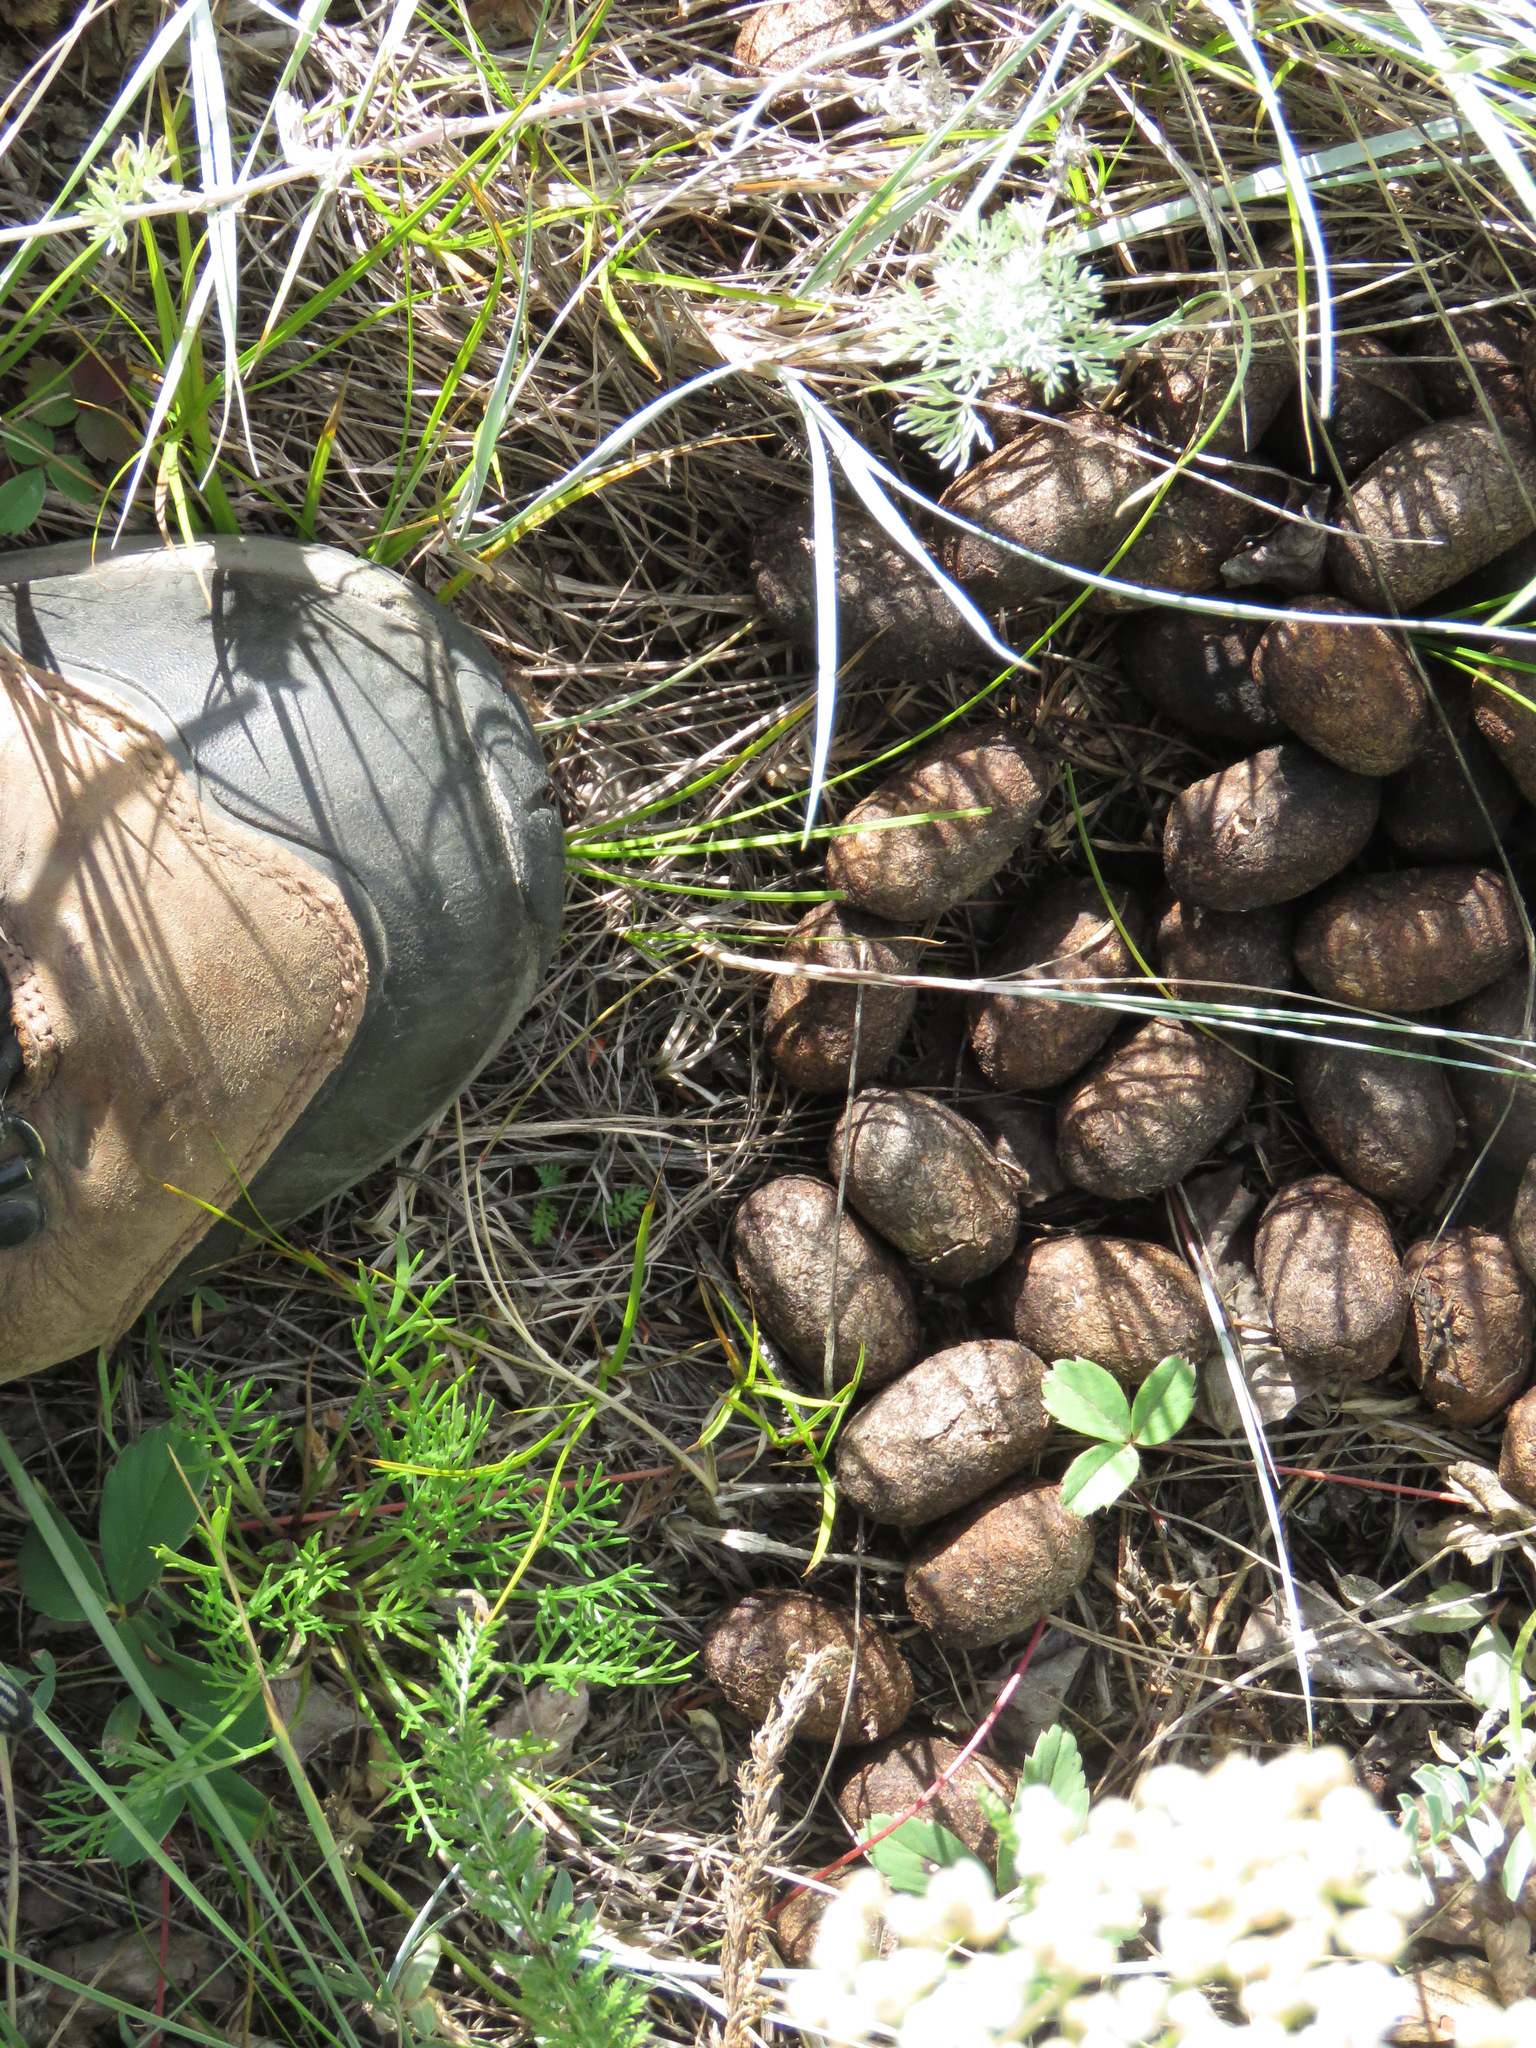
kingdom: Animalia
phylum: Chordata
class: Mammalia
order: Artiodactyla
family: Cervidae
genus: Alces
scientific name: Alces alces
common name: Moose
